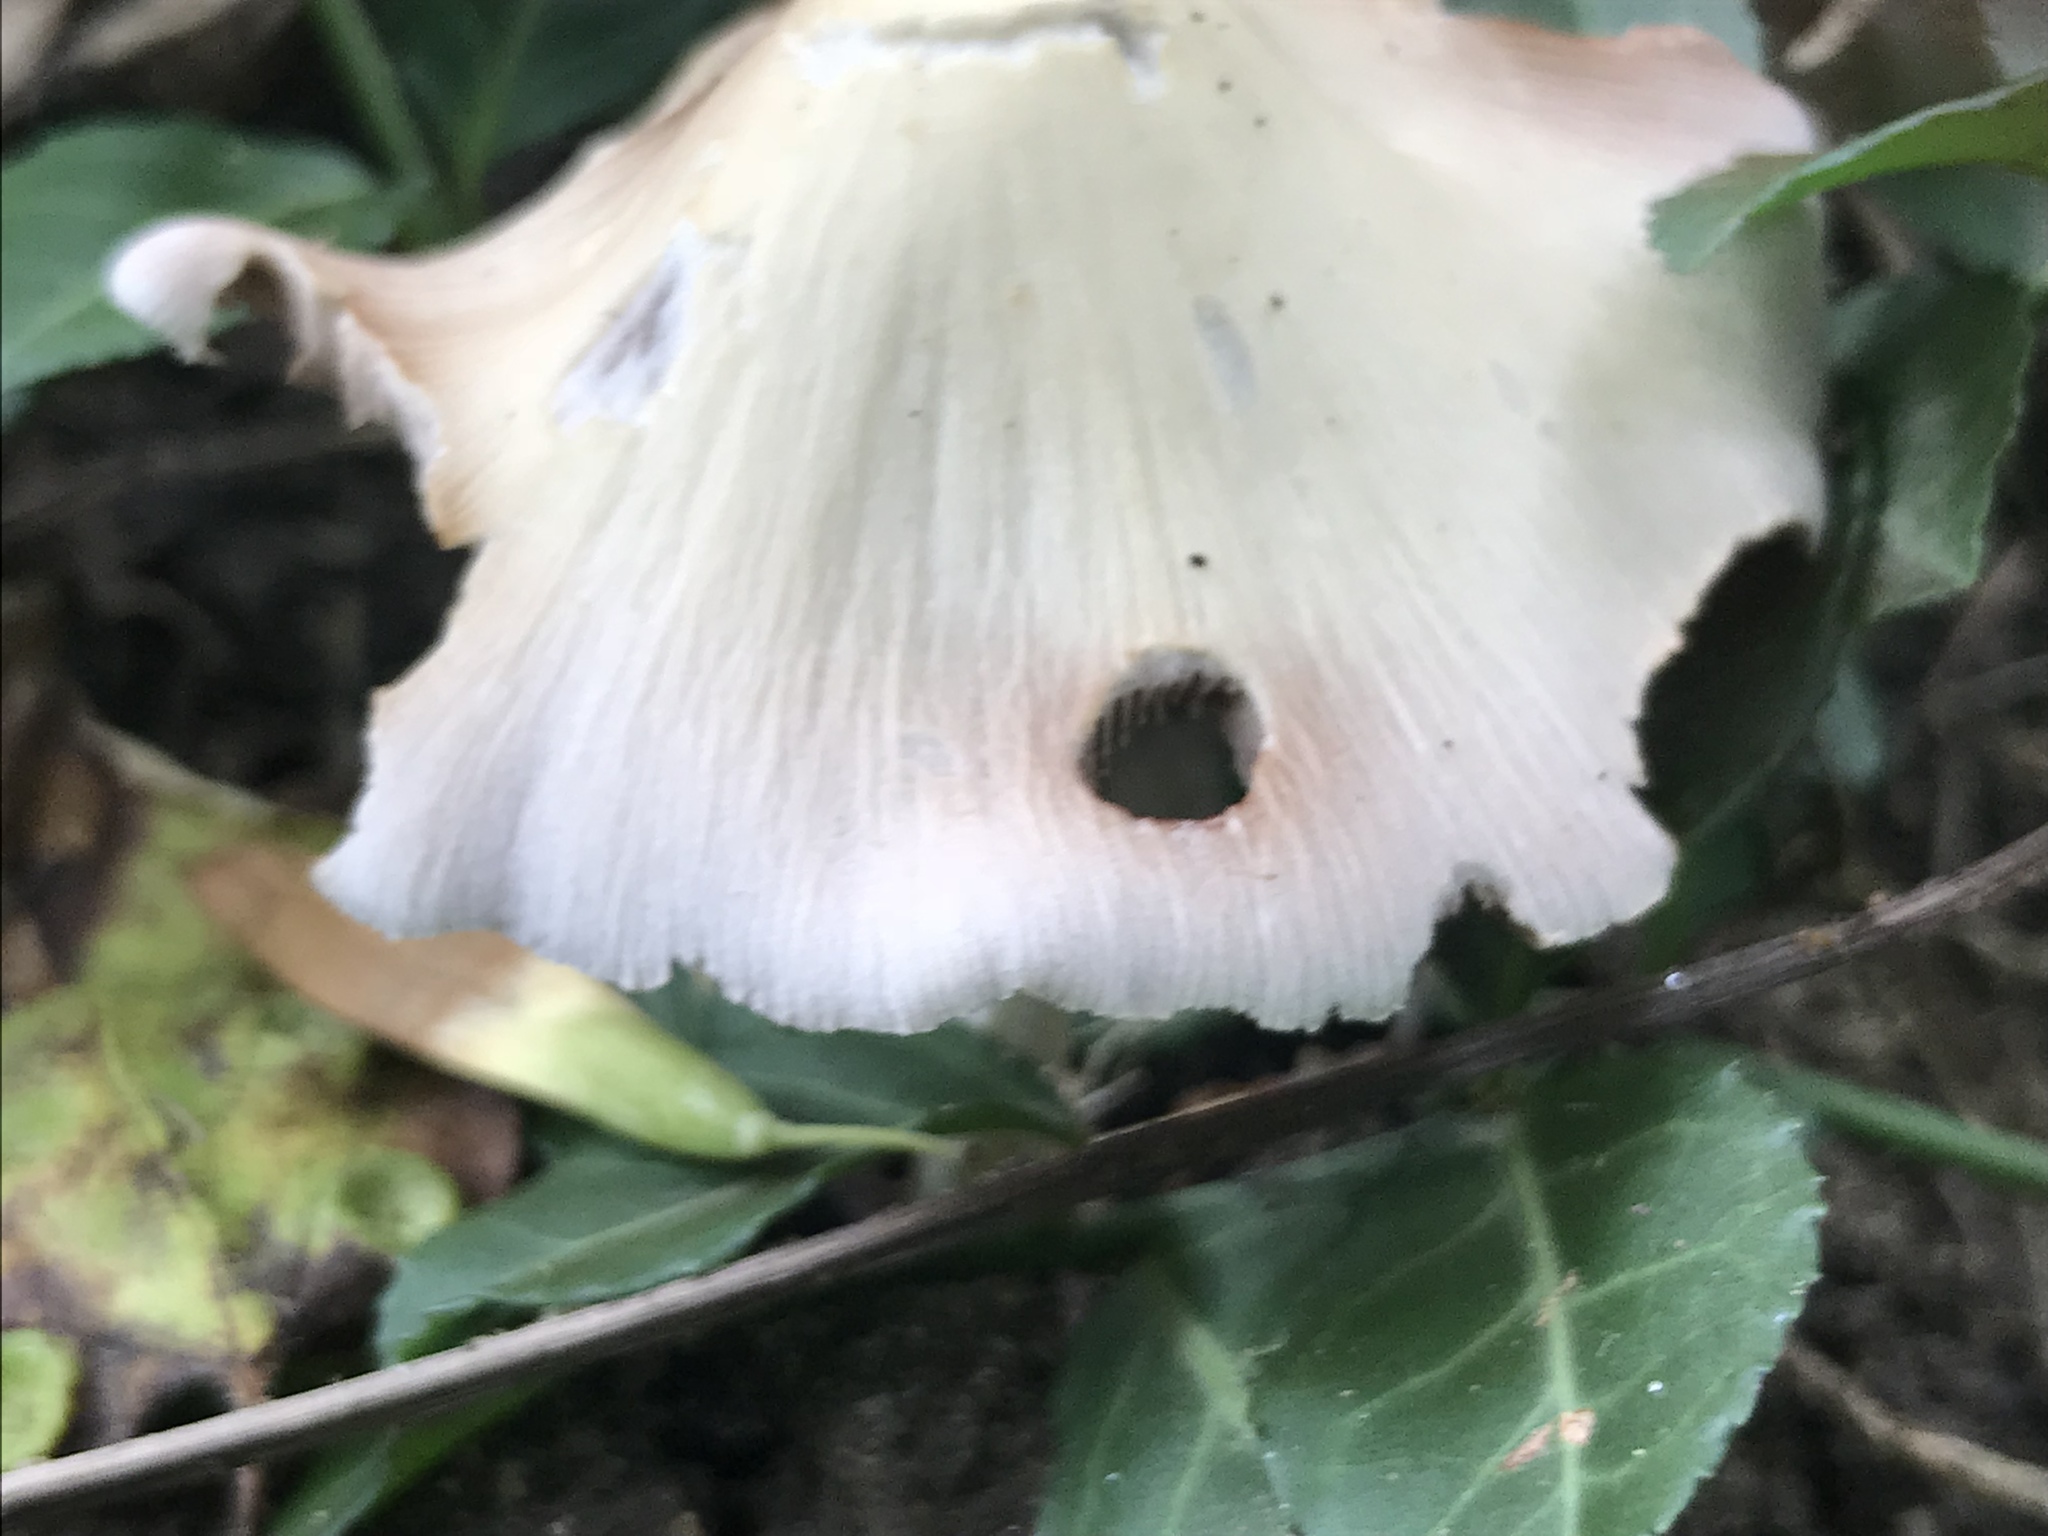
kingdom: Fungi
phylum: Basidiomycota
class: Agaricomycetes
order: Agaricales
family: Psathyrellaceae
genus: Candolleomyces
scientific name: Candolleomyces candolleanus
